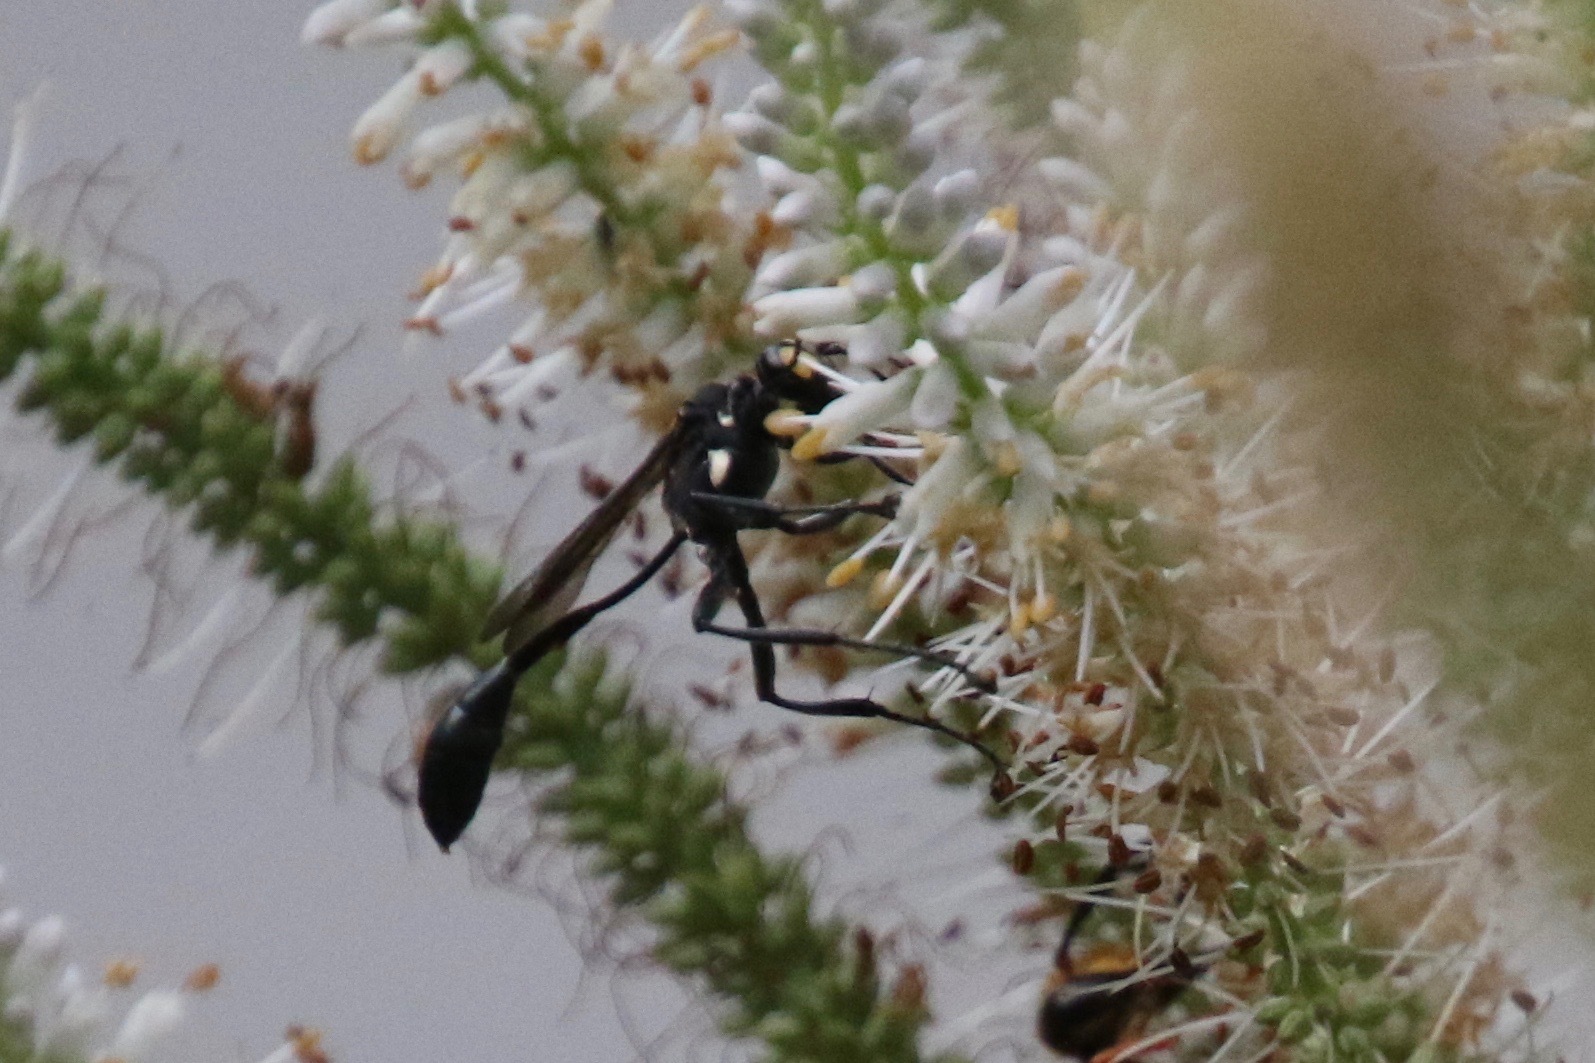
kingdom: Animalia
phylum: Arthropoda
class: Insecta
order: Hymenoptera
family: Sphecidae
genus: Eremnophila
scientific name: Eremnophila aureonotata
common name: Gold-marked thread-waisted wasp
